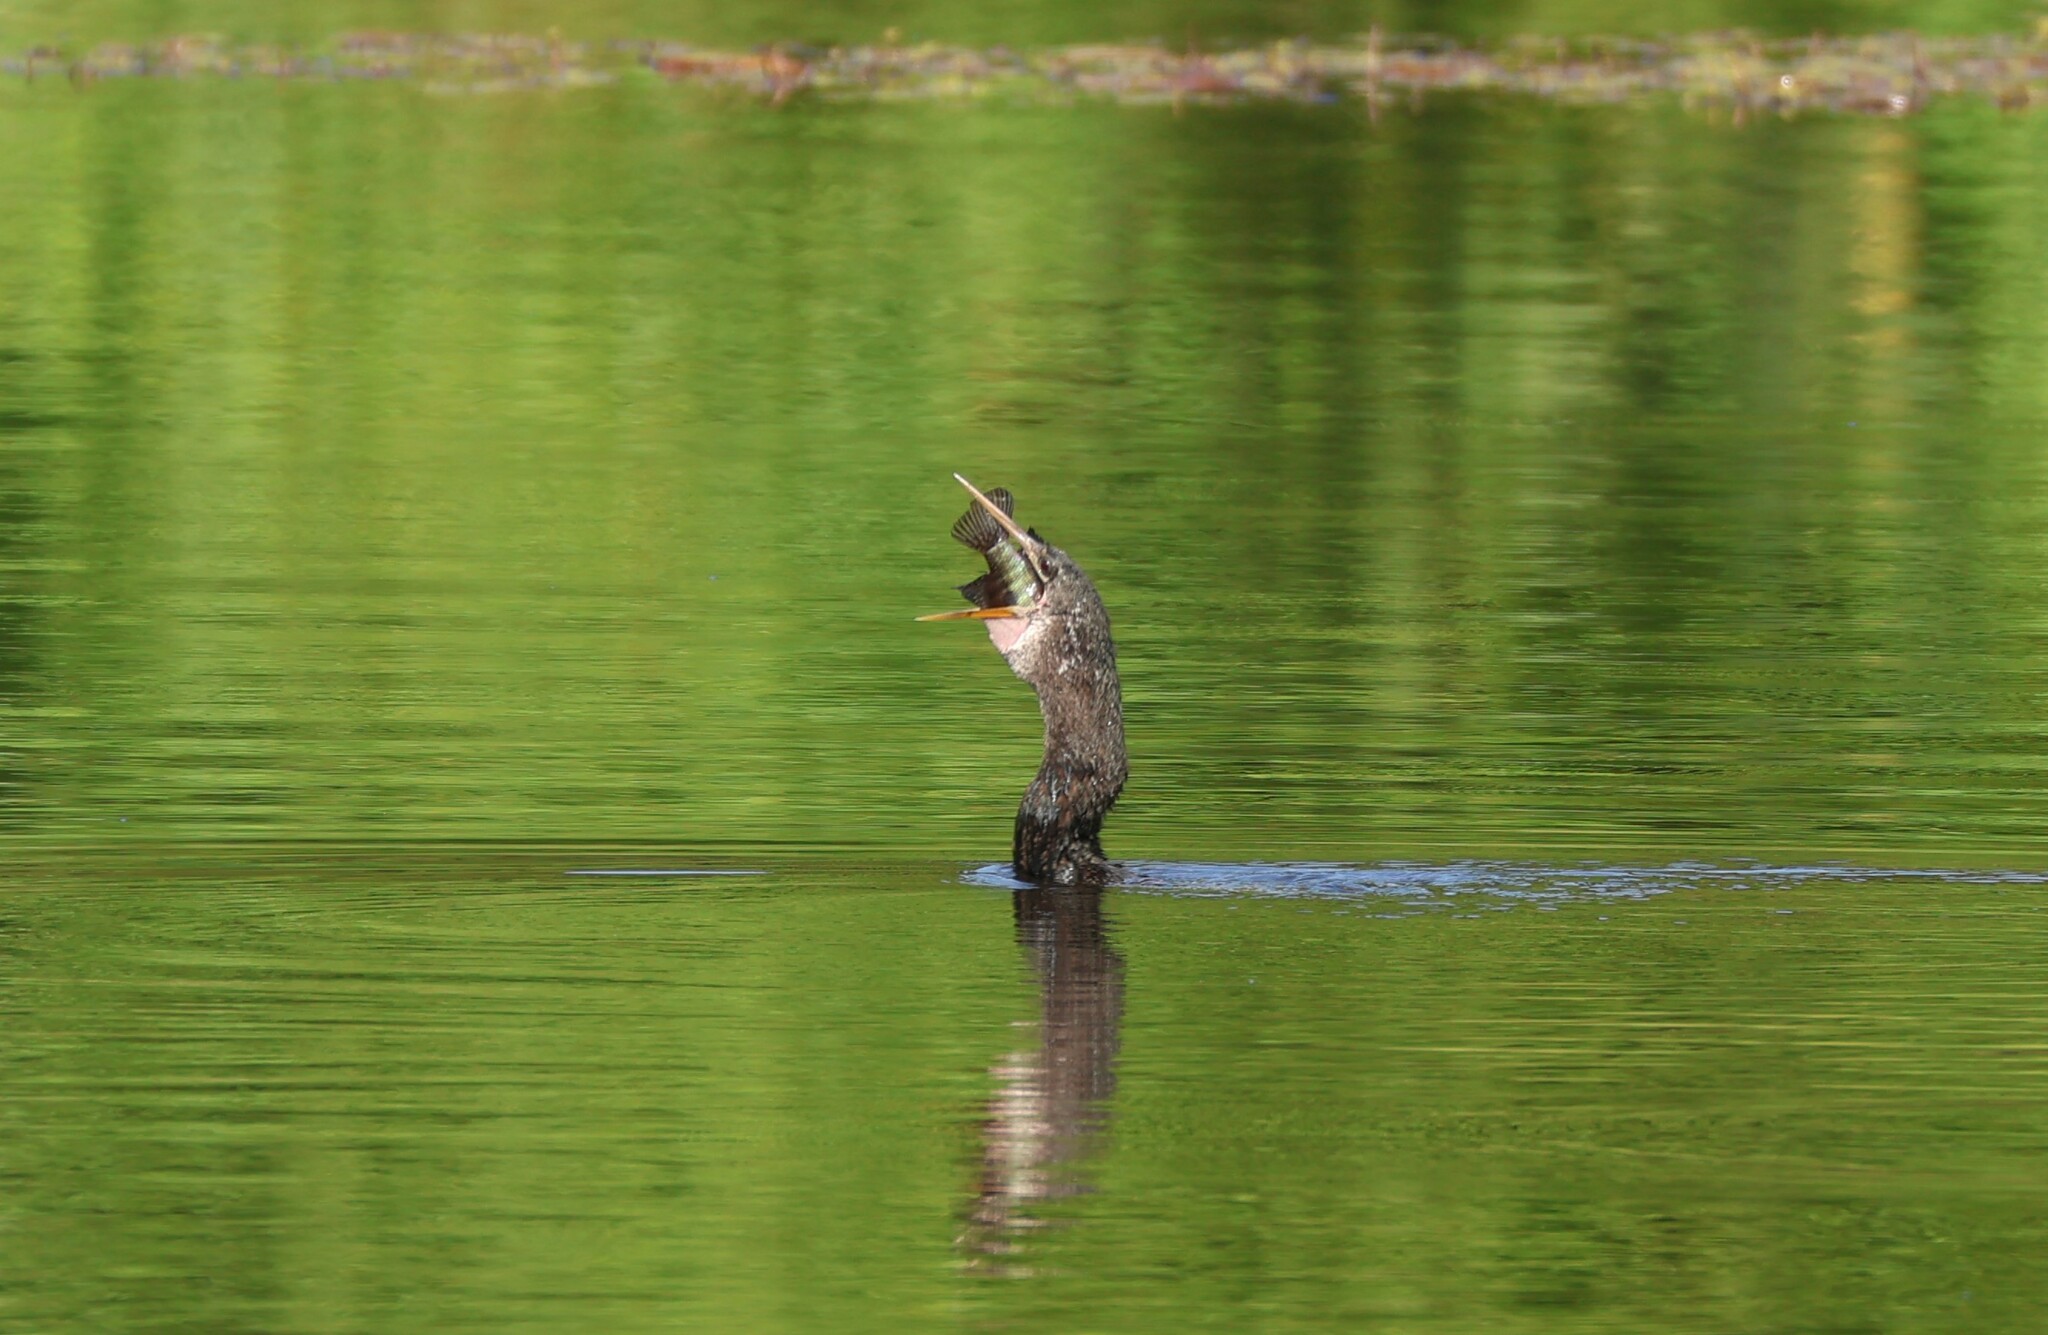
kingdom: Animalia
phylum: Chordata
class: Aves
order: Suliformes
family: Anhingidae
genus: Anhinga
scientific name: Anhinga anhinga
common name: Anhinga
